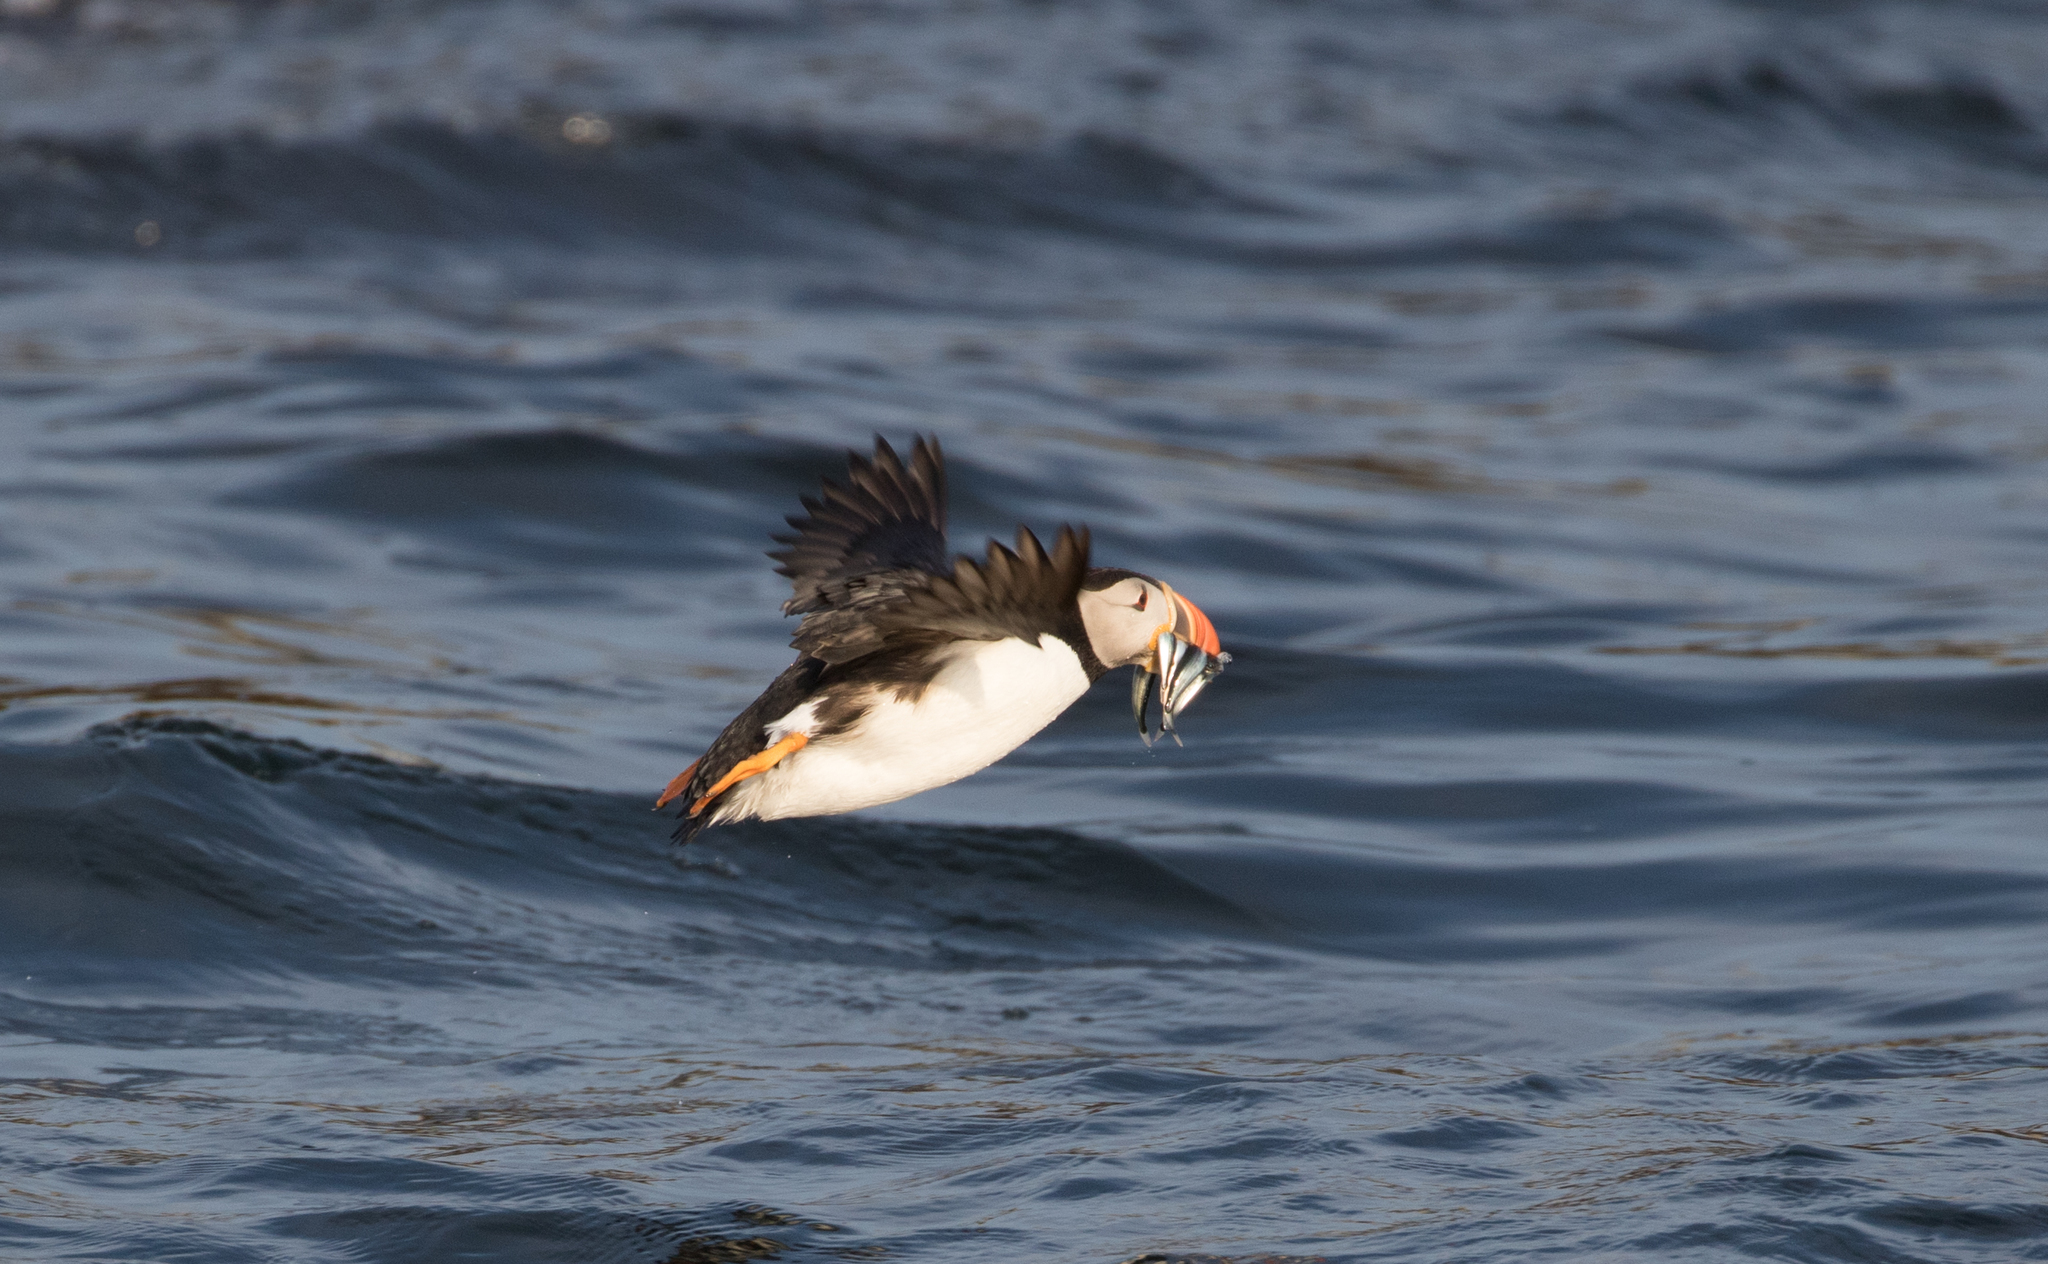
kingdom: Animalia
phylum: Chordata
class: Aves
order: Charadriiformes
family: Alcidae
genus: Fratercula
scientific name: Fratercula arctica
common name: Atlantic puffin
